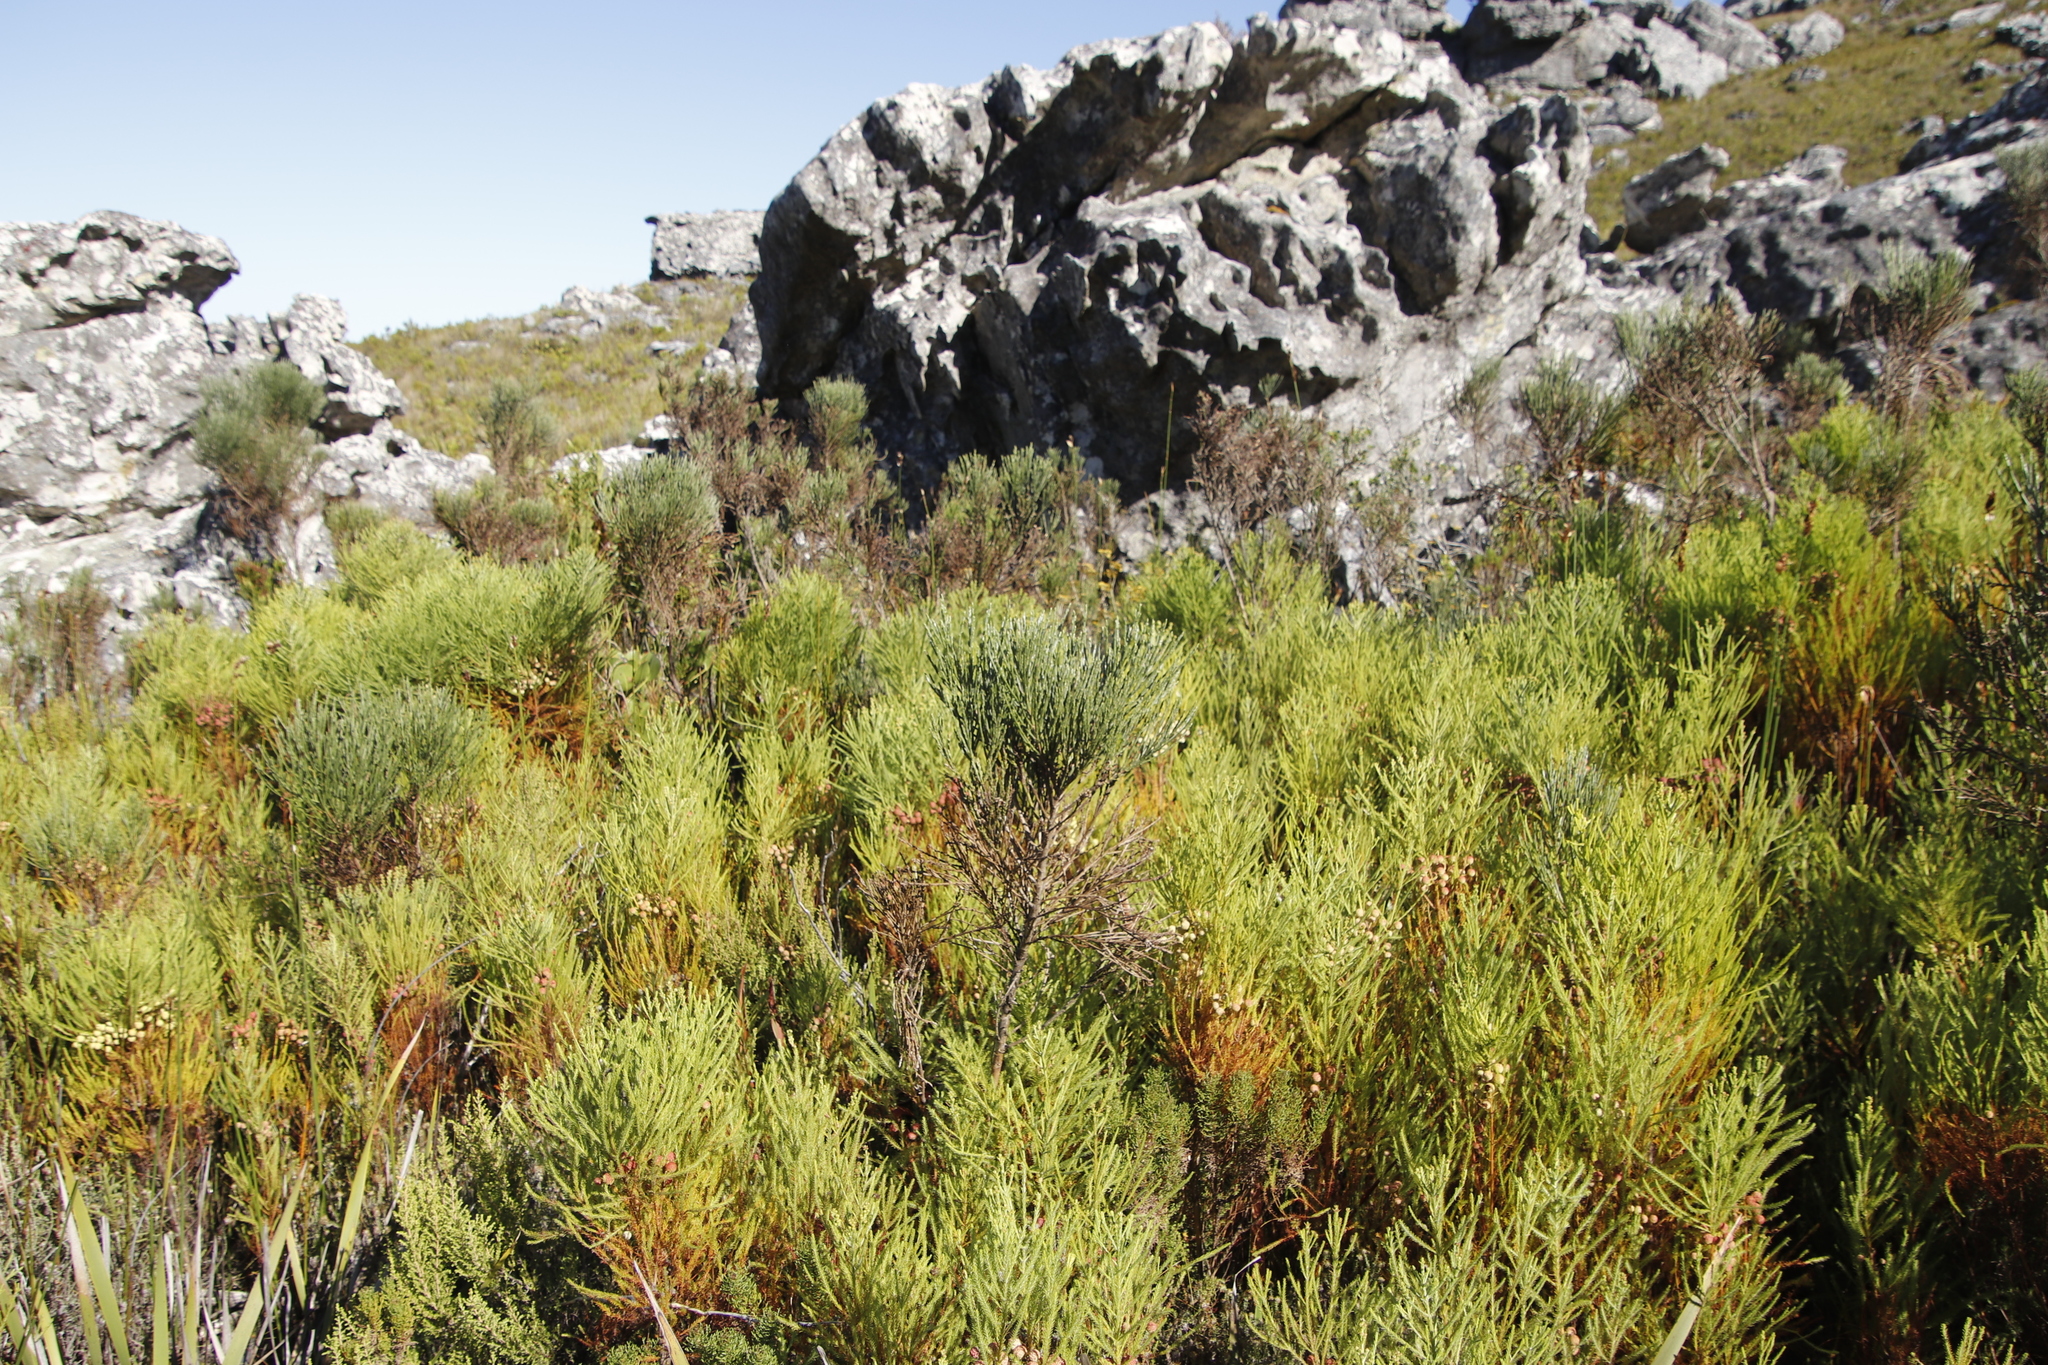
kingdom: Plantae
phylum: Tracheophyta
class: Magnoliopsida
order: Fabales
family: Fabaceae
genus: Psoralea
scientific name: Psoralea aphylla
